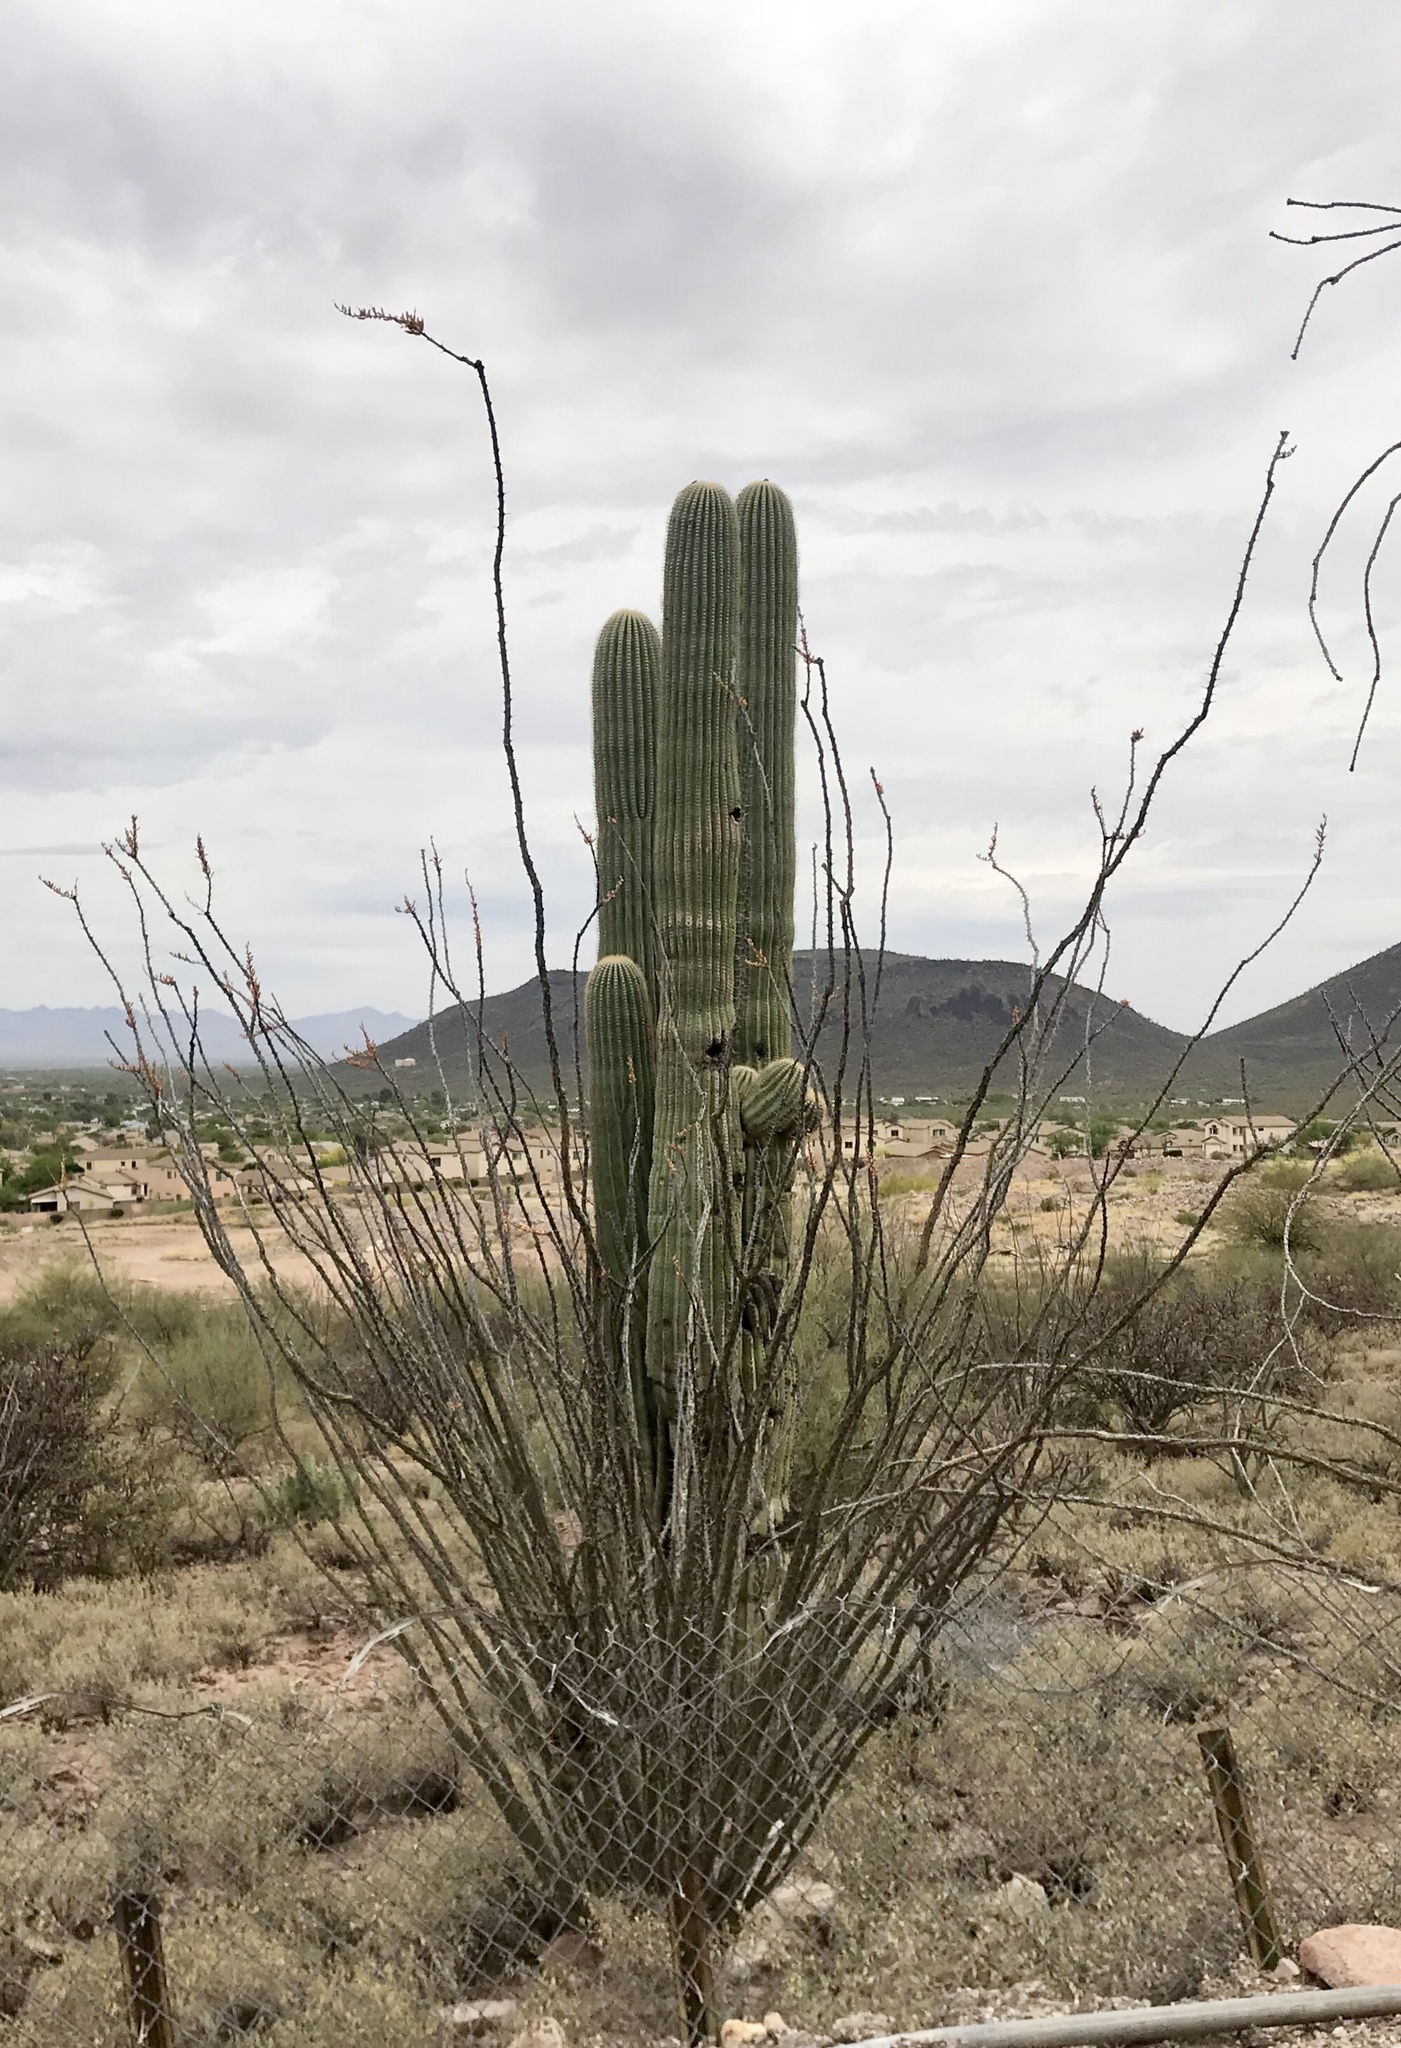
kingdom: Plantae
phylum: Tracheophyta
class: Magnoliopsida
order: Ericales
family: Fouquieriaceae
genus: Fouquieria
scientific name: Fouquieria splendens
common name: Vine-cactus
